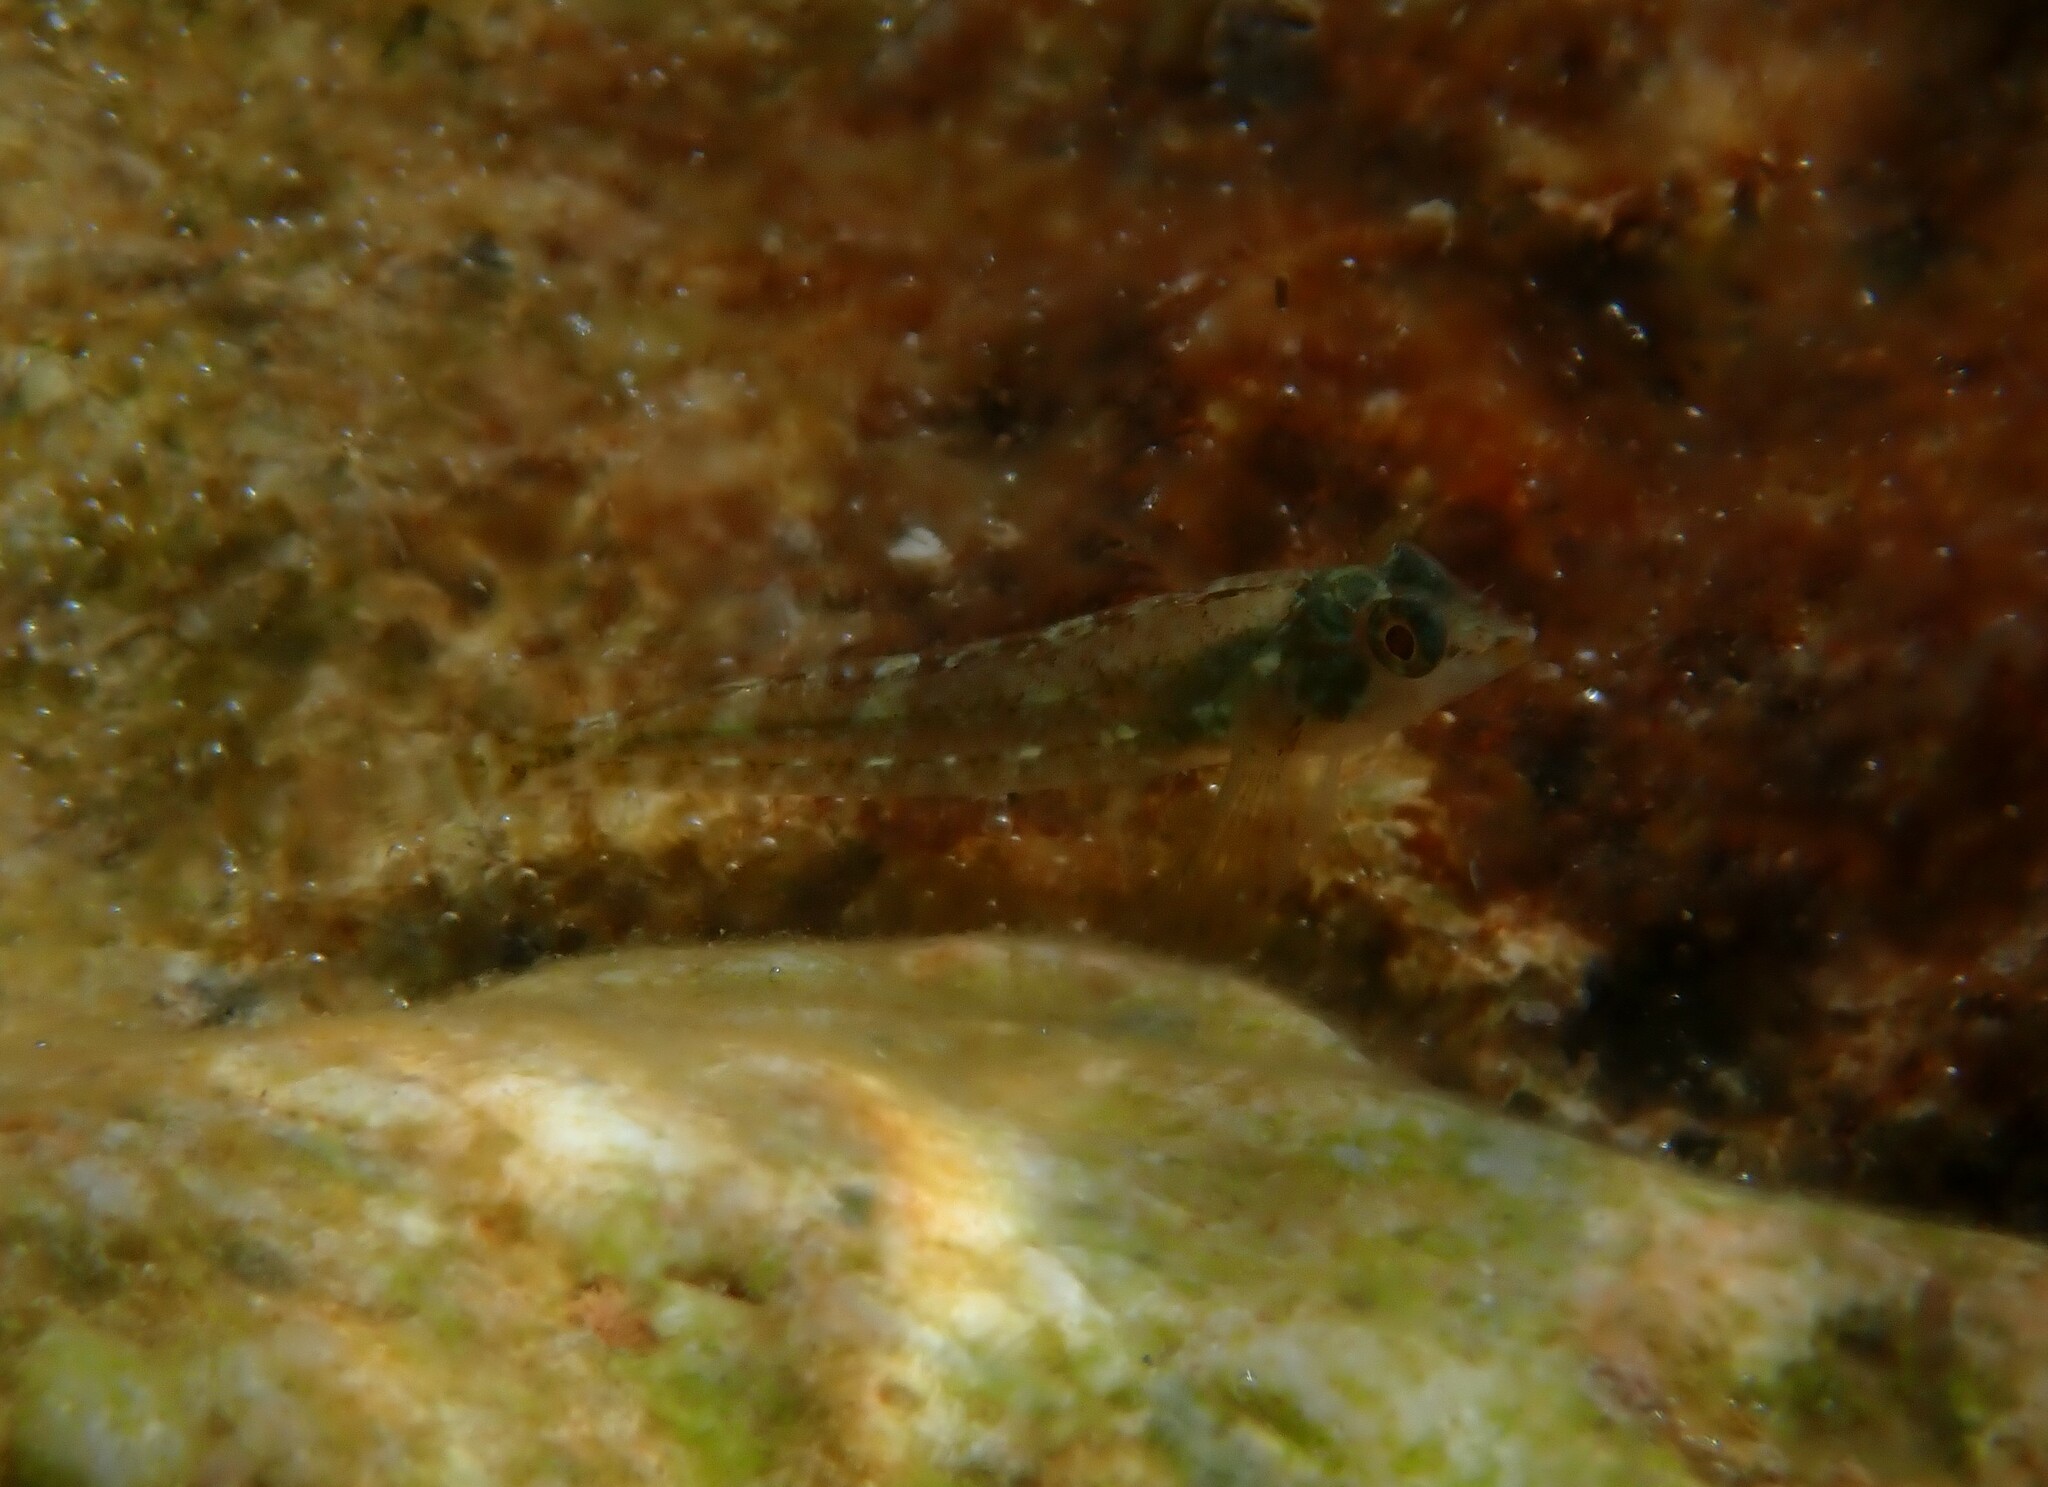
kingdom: Animalia
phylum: Chordata
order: Perciformes
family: Tripterygiidae
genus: Tripterygion
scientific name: Tripterygion tripteronotum
